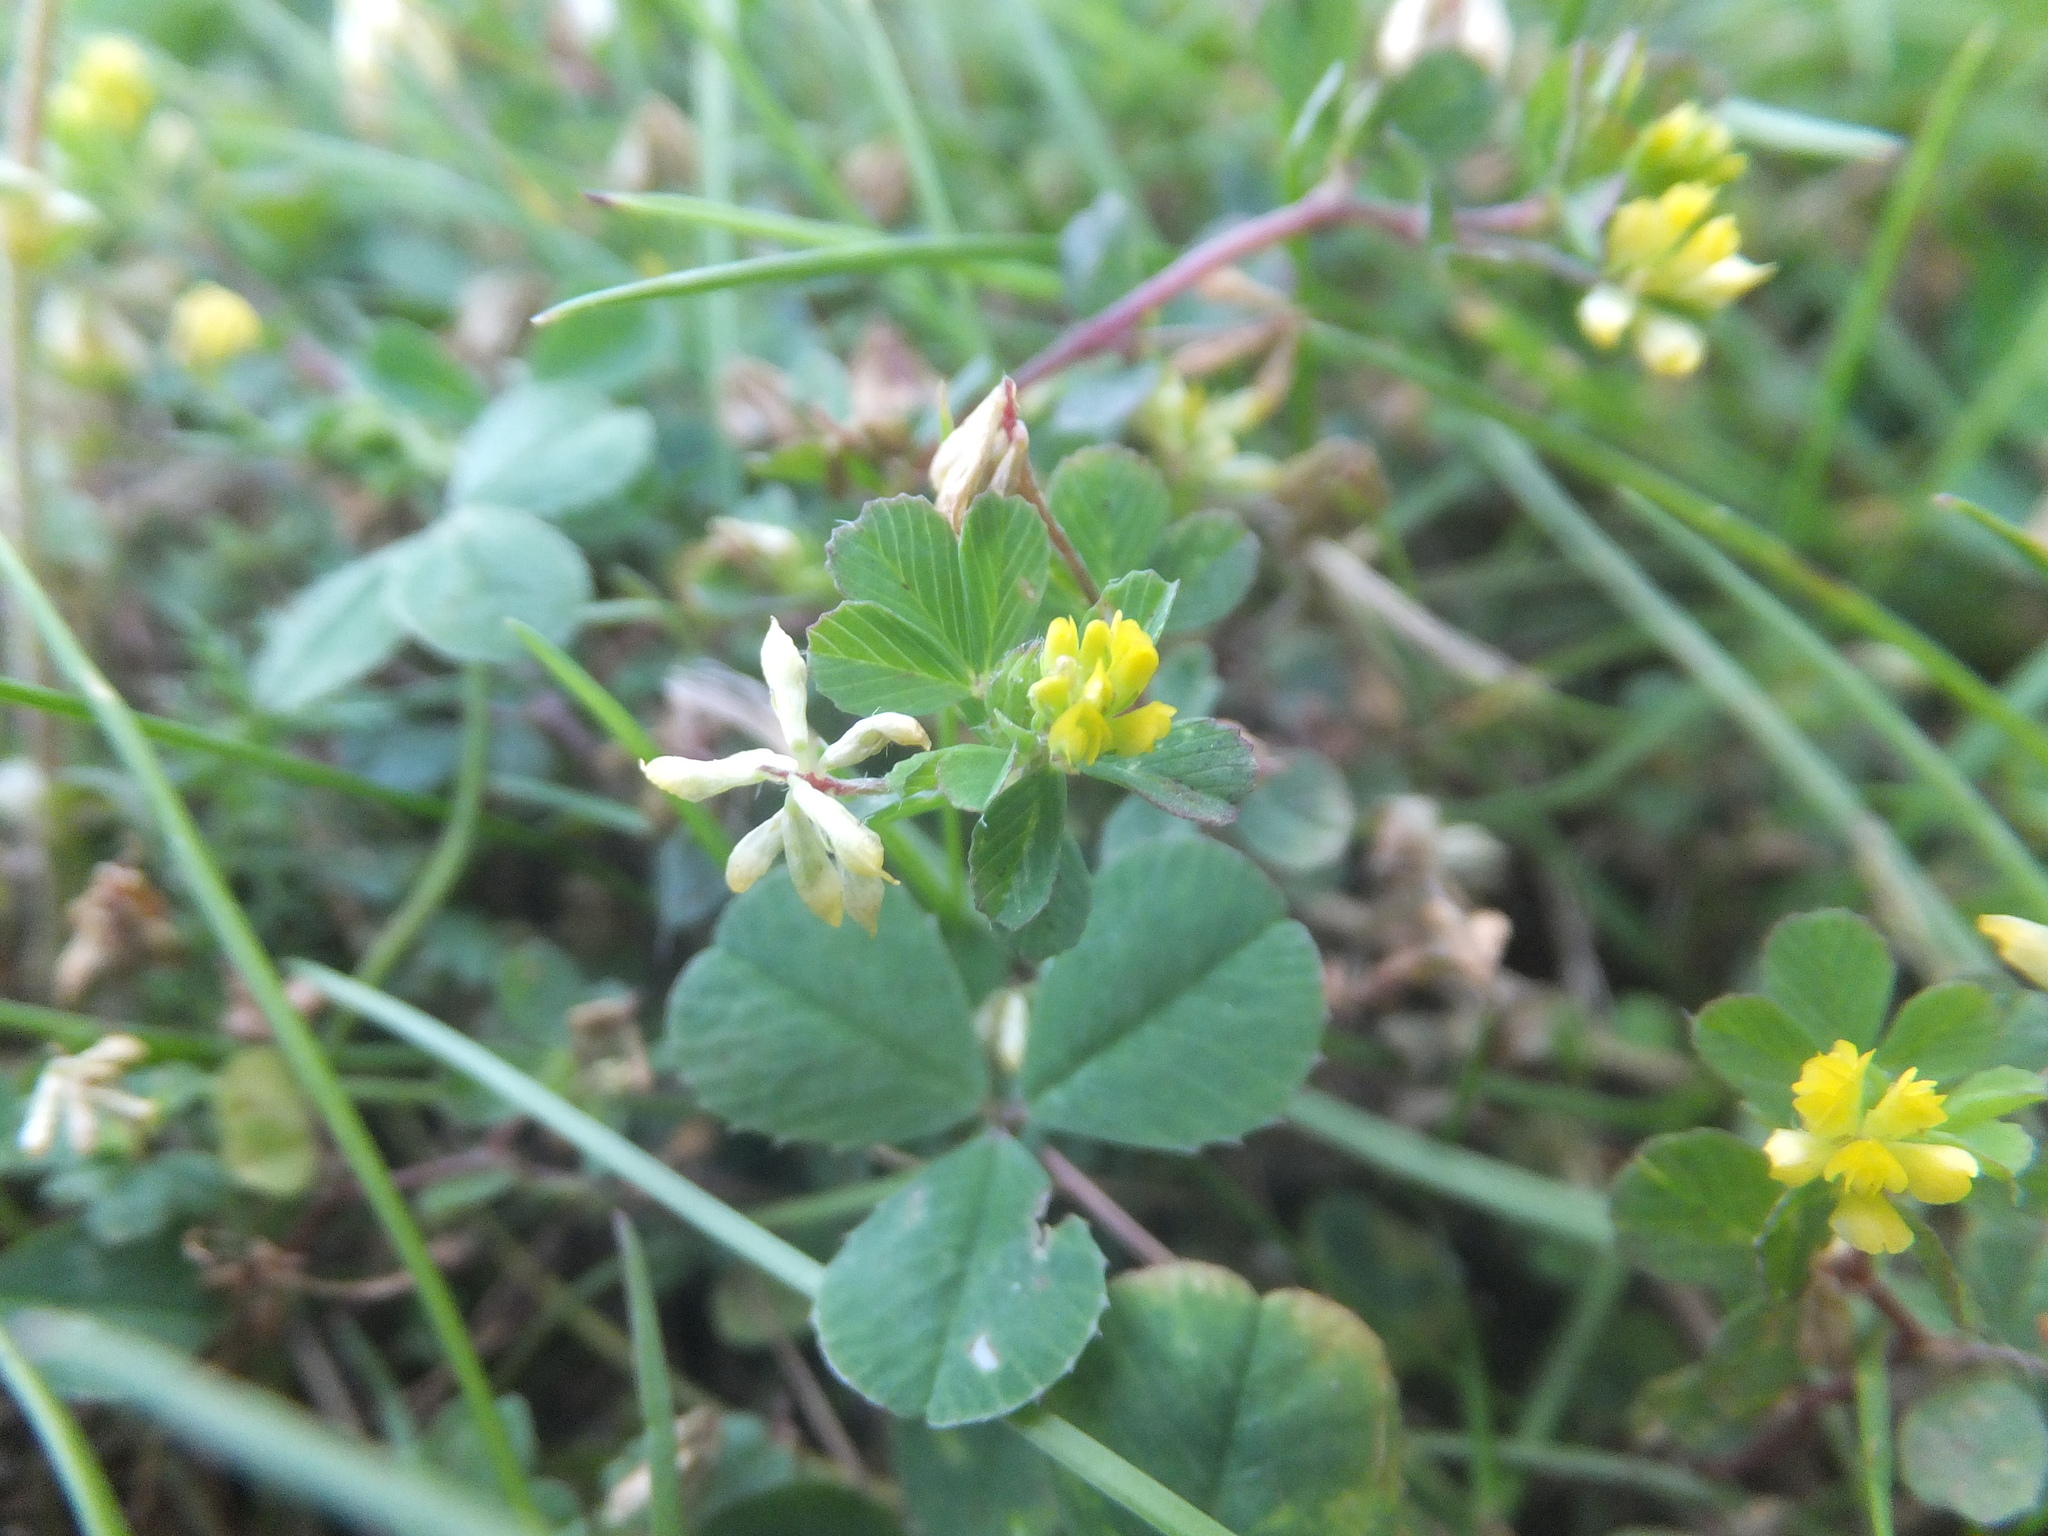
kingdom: Plantae
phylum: Tracheophyta
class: Magnoliopsida
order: Fabales
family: Fabaceae
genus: Trifolium
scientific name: Trifolium dubium
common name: Suckling clover
